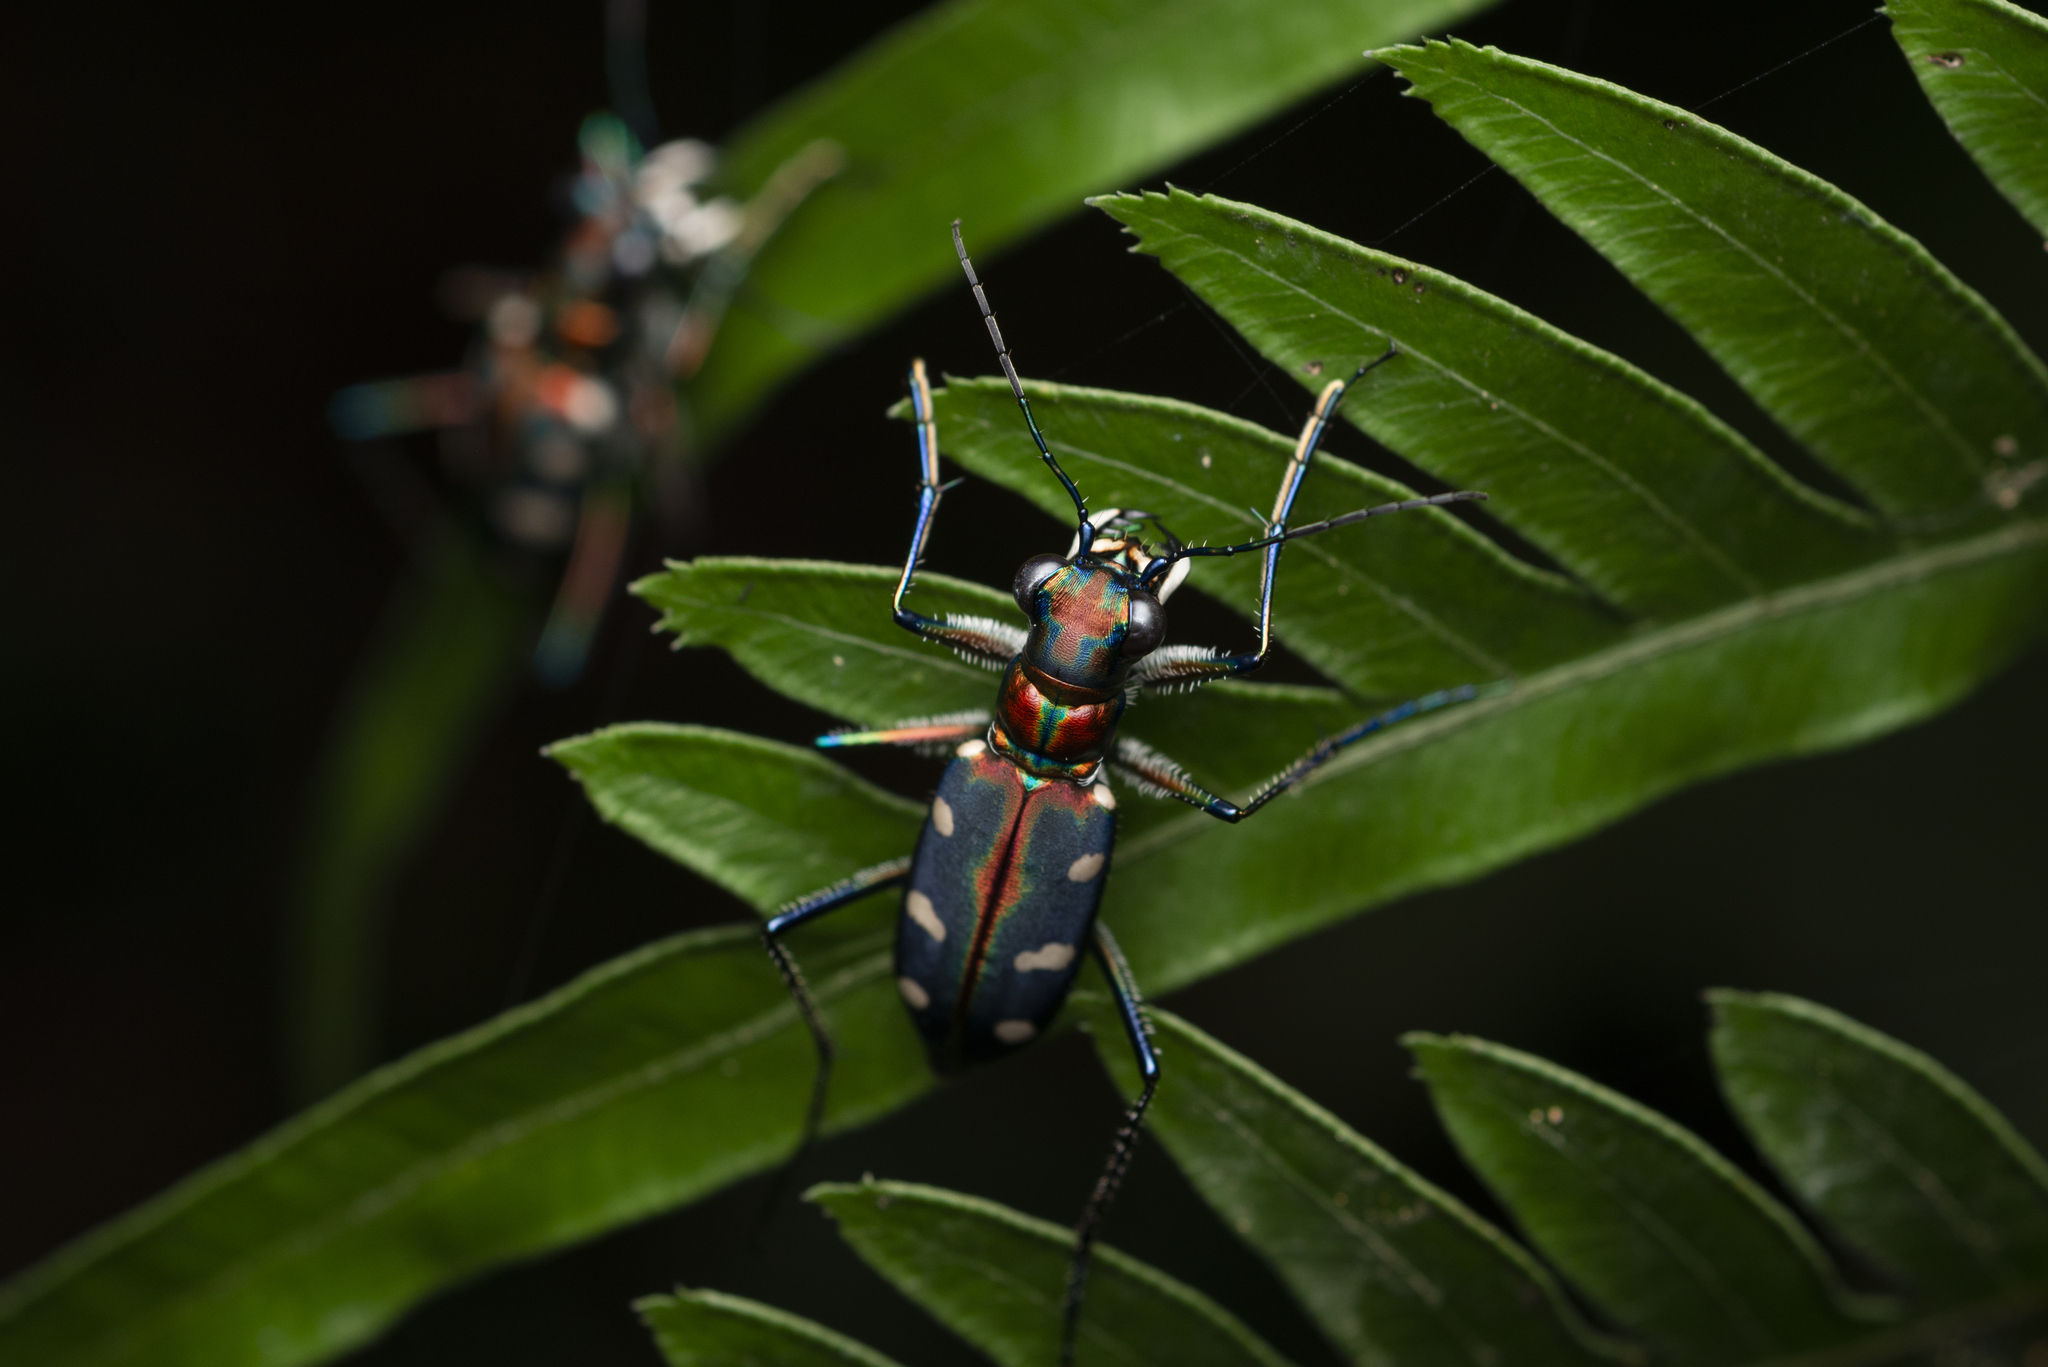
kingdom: Animalia
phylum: Arthropoda
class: Insecta
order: Coleoptera
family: Carabidae
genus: Cicindela
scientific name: Cicindela juxtata
